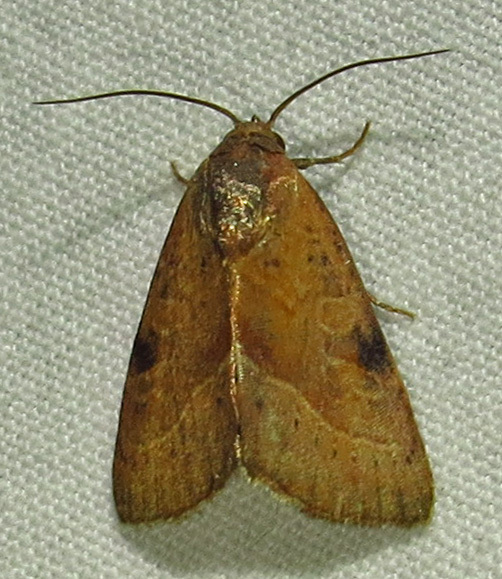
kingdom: Animalia
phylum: Arthropoda
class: Insecta
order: Lepidoptera
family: Noctuidae
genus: Galgula
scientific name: Galgula partita
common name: Wedgeling
